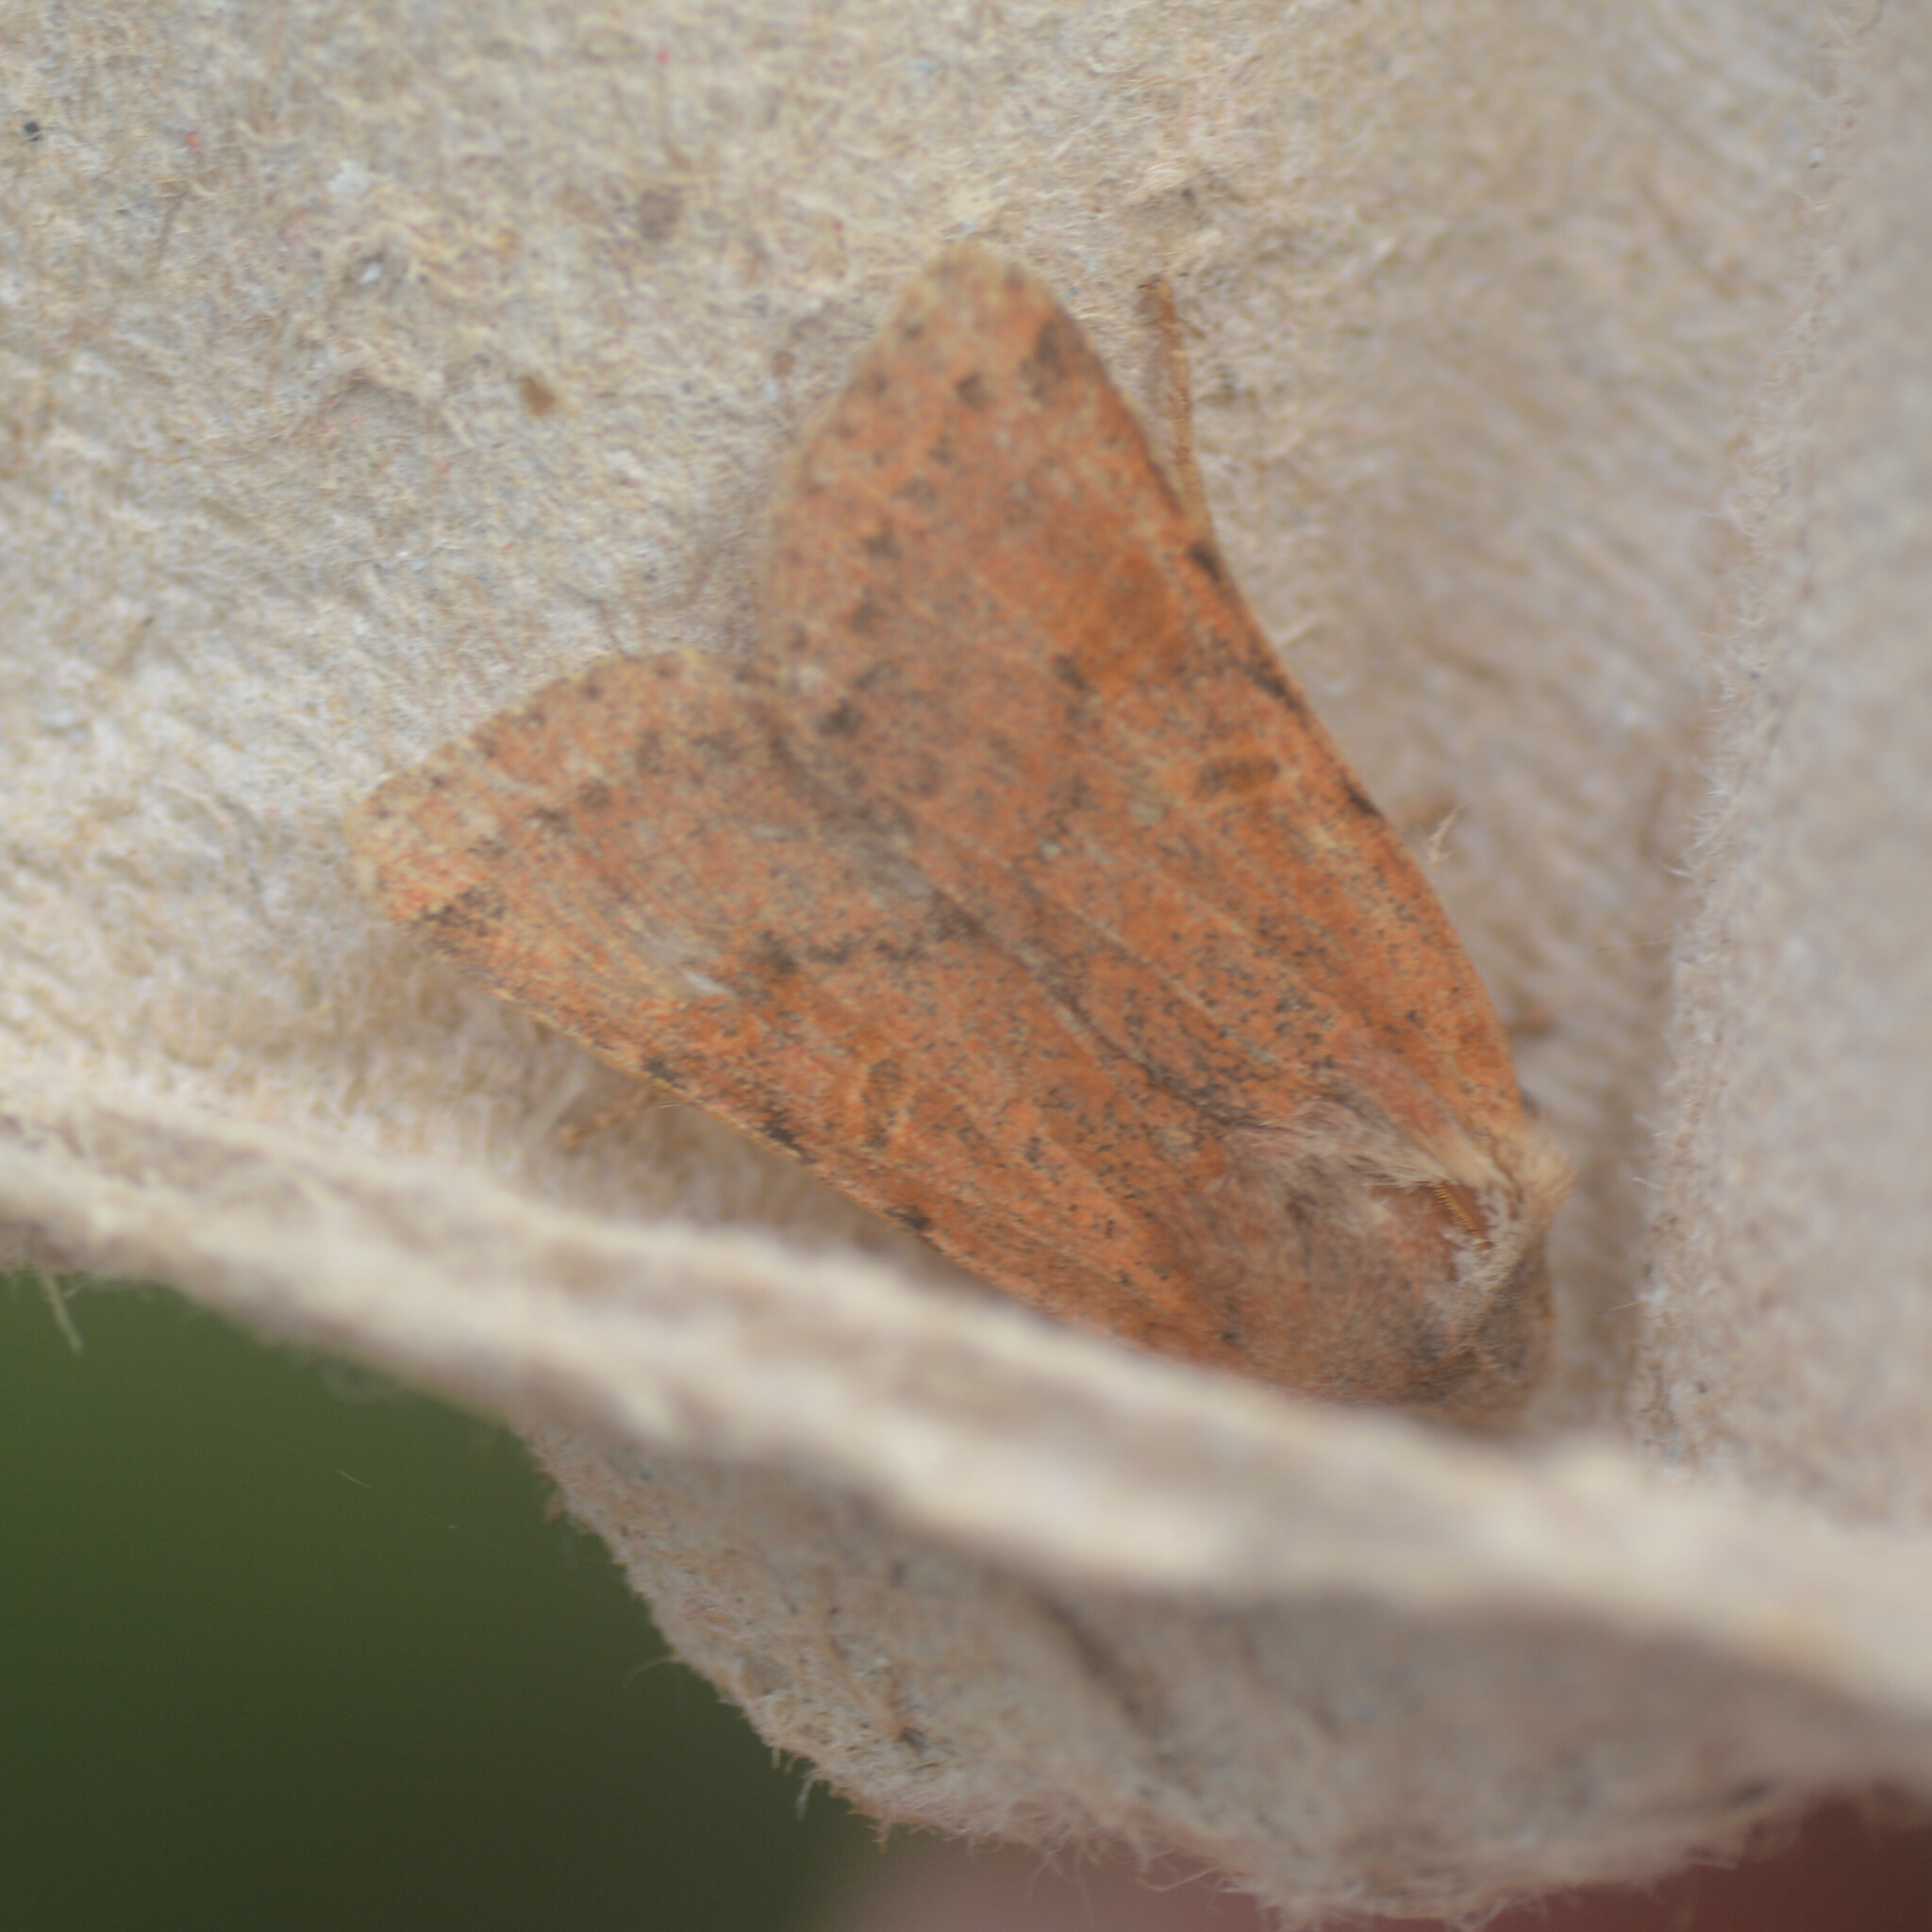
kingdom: Animalia
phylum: Arthropoda
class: Insecta
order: Lepidoptera
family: Noctuidae
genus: Agrochola
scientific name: Agrochola lychnidis
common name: Beaded chestnut
